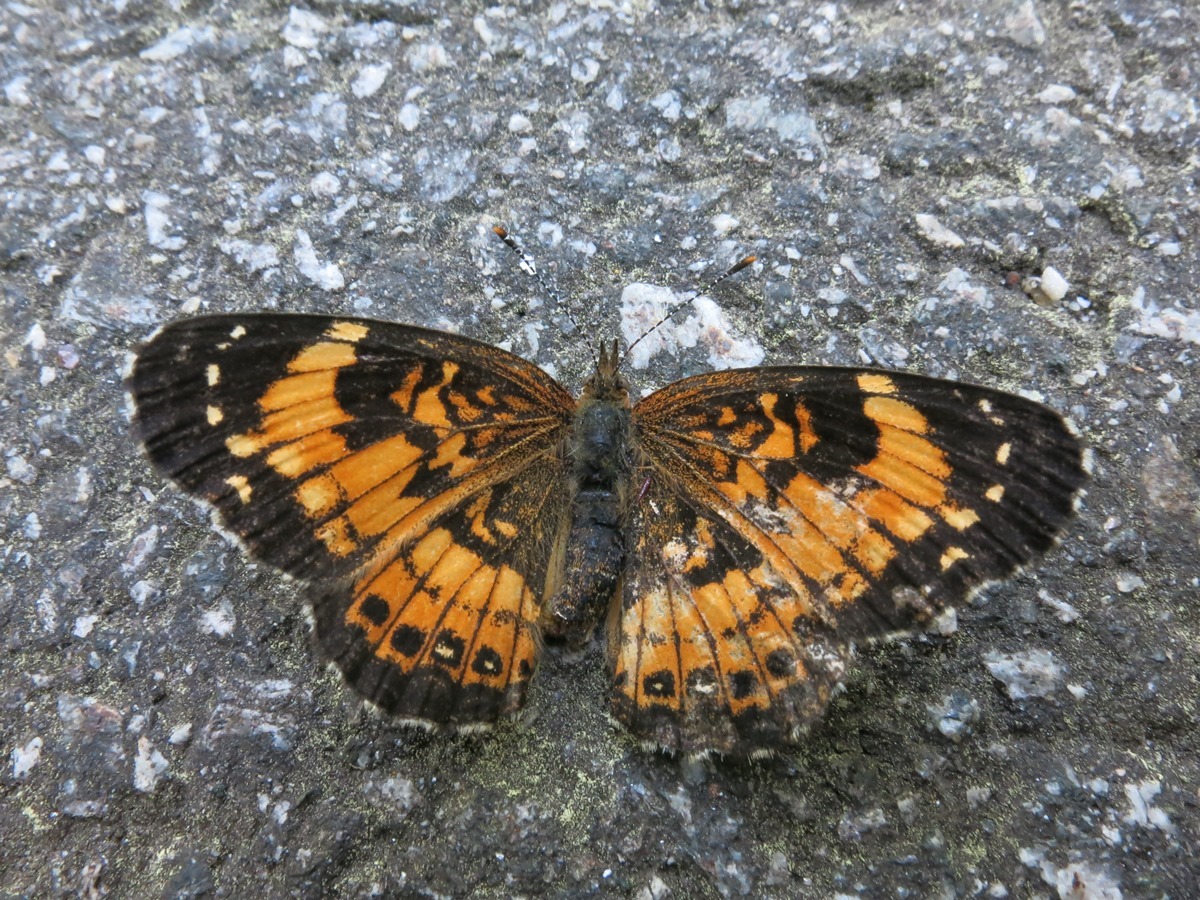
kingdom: Animalia
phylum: Arthropoda
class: Insecta
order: Lepidoptera
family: Nymphalidae
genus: Chlosyne
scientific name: Chlosyne nycteis
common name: Silvery checkerspot
